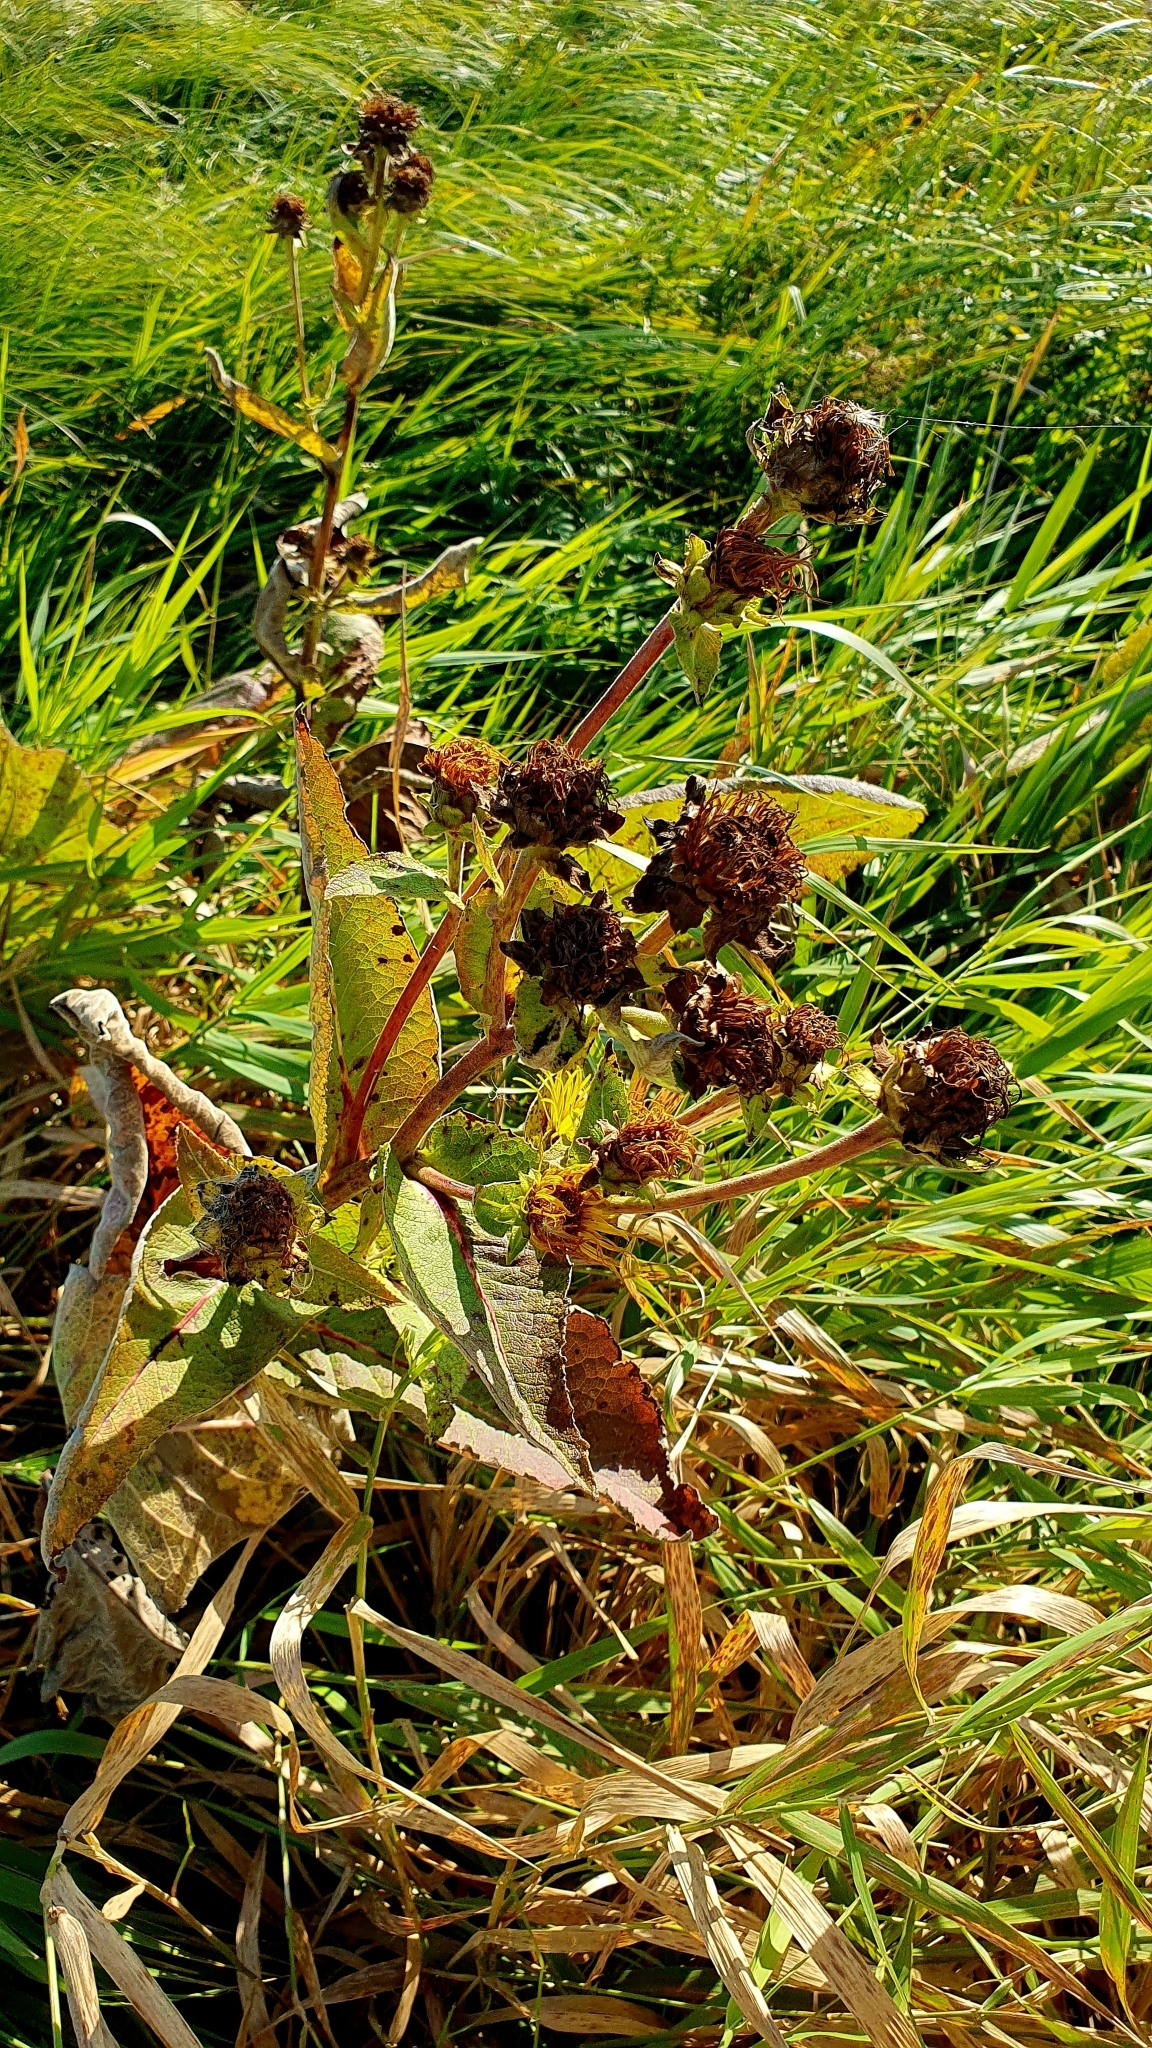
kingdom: Plantae
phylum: Tracheophyta
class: Magnoliopsida
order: Asterales
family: Asteraceae
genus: Inula
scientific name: Inula helenium
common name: Elecampane
